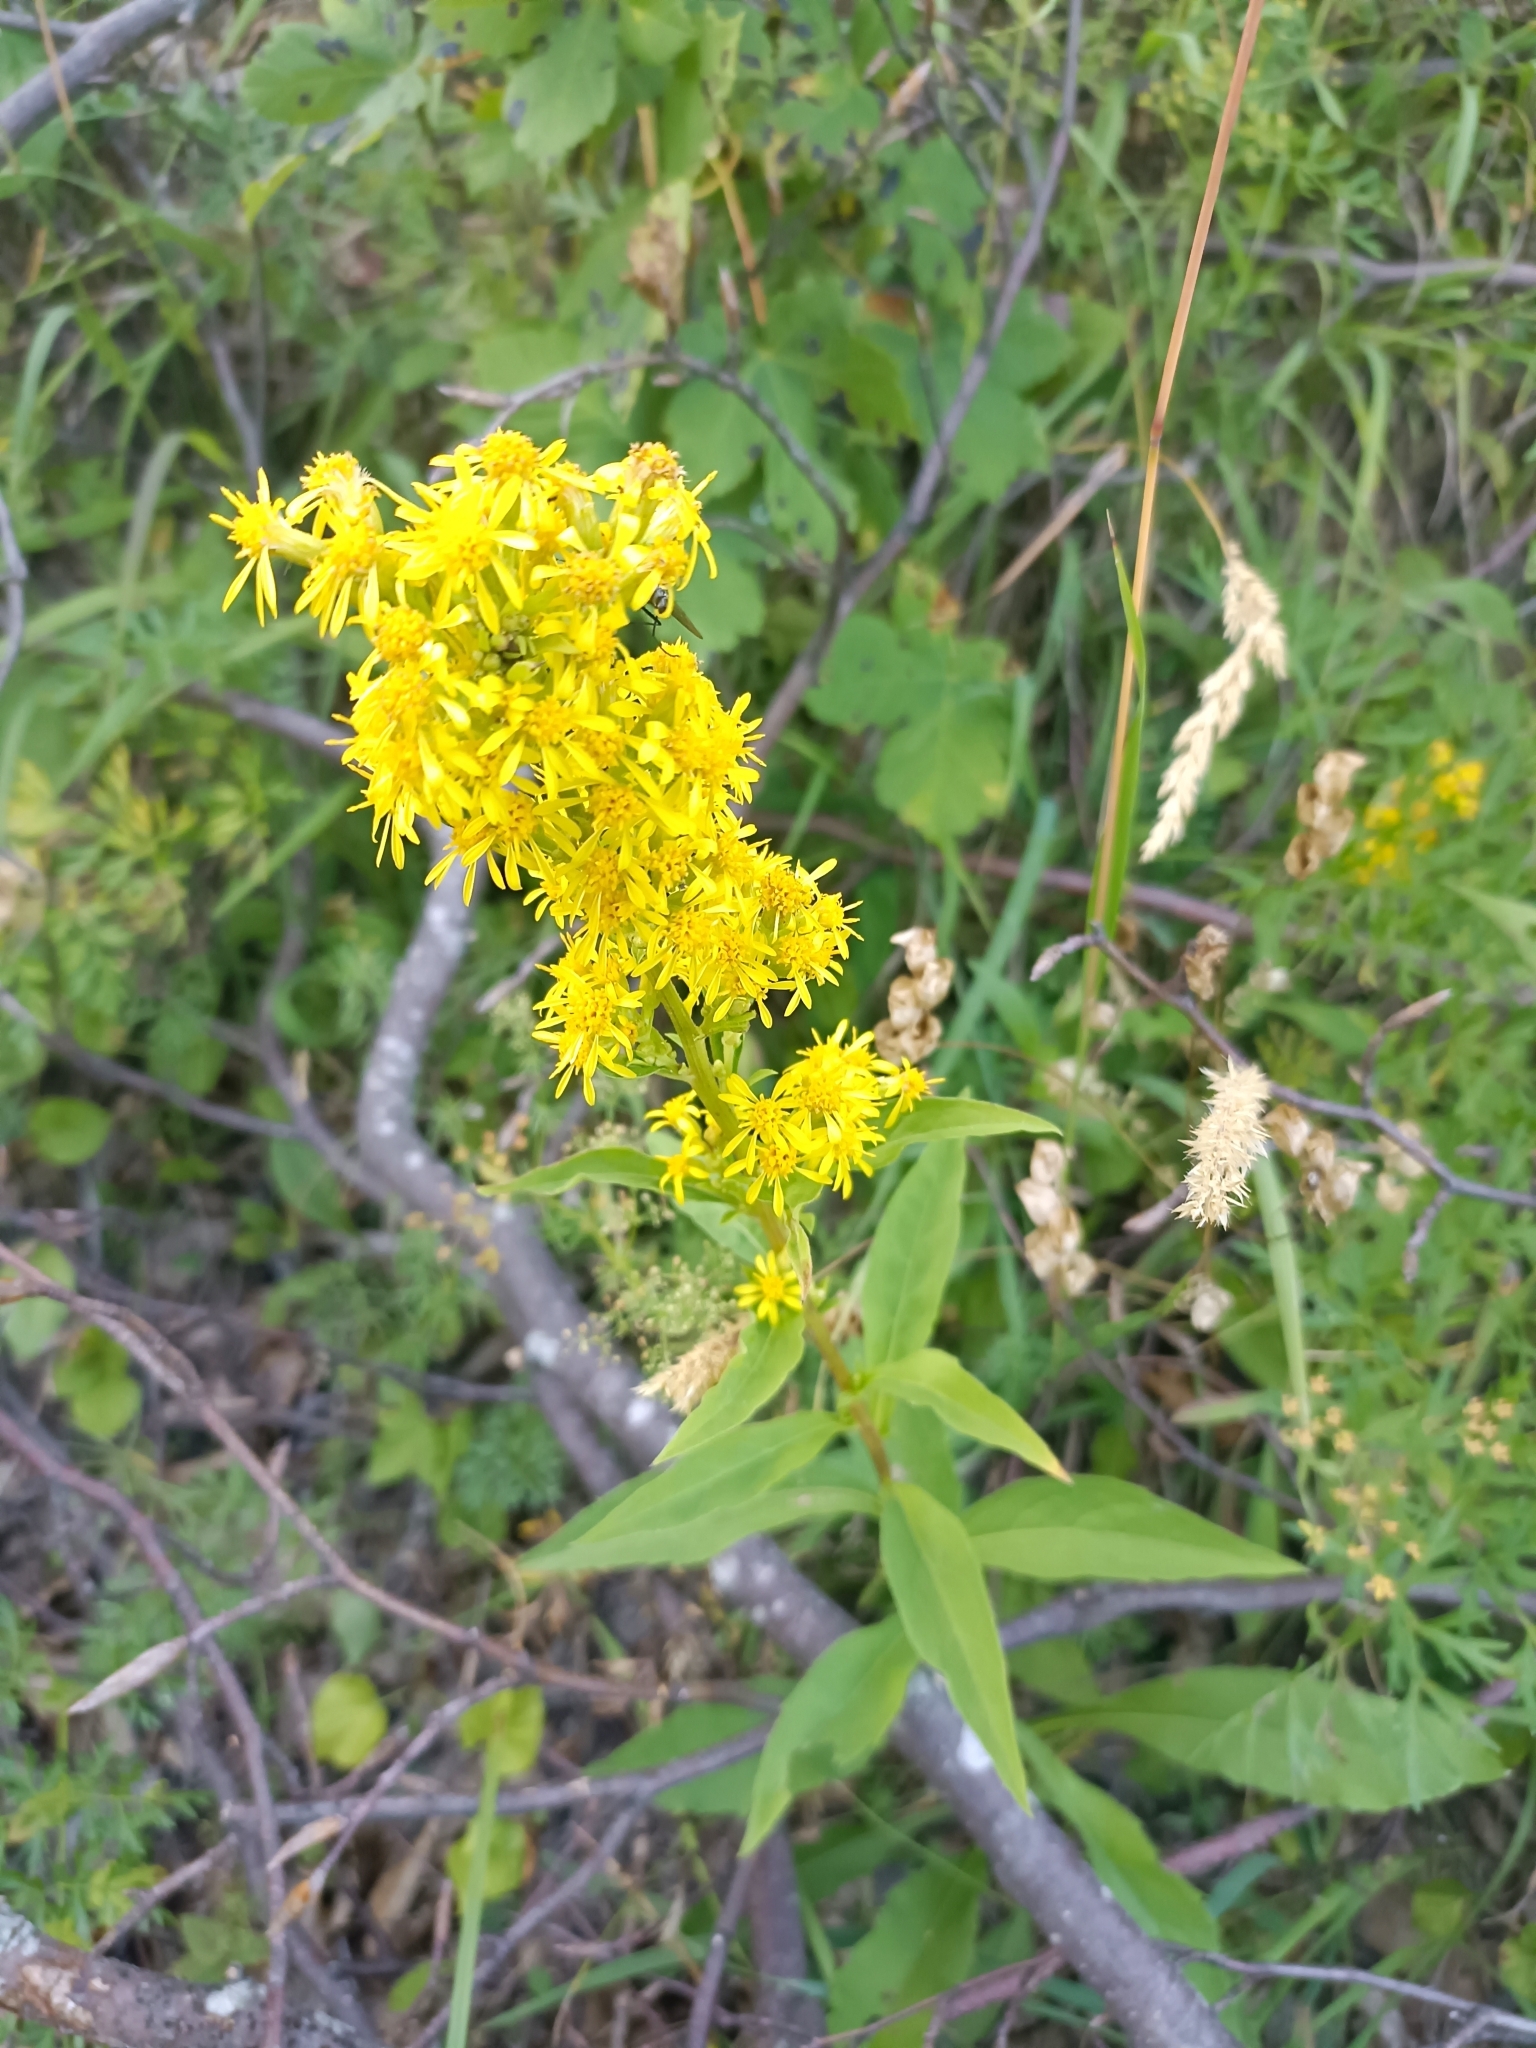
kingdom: Plantae
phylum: Tracheophyta
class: Magnoliopsida
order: Asterales
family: Asteraceae
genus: Solidago
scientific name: Solidago virgaurea
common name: Goldenrod
